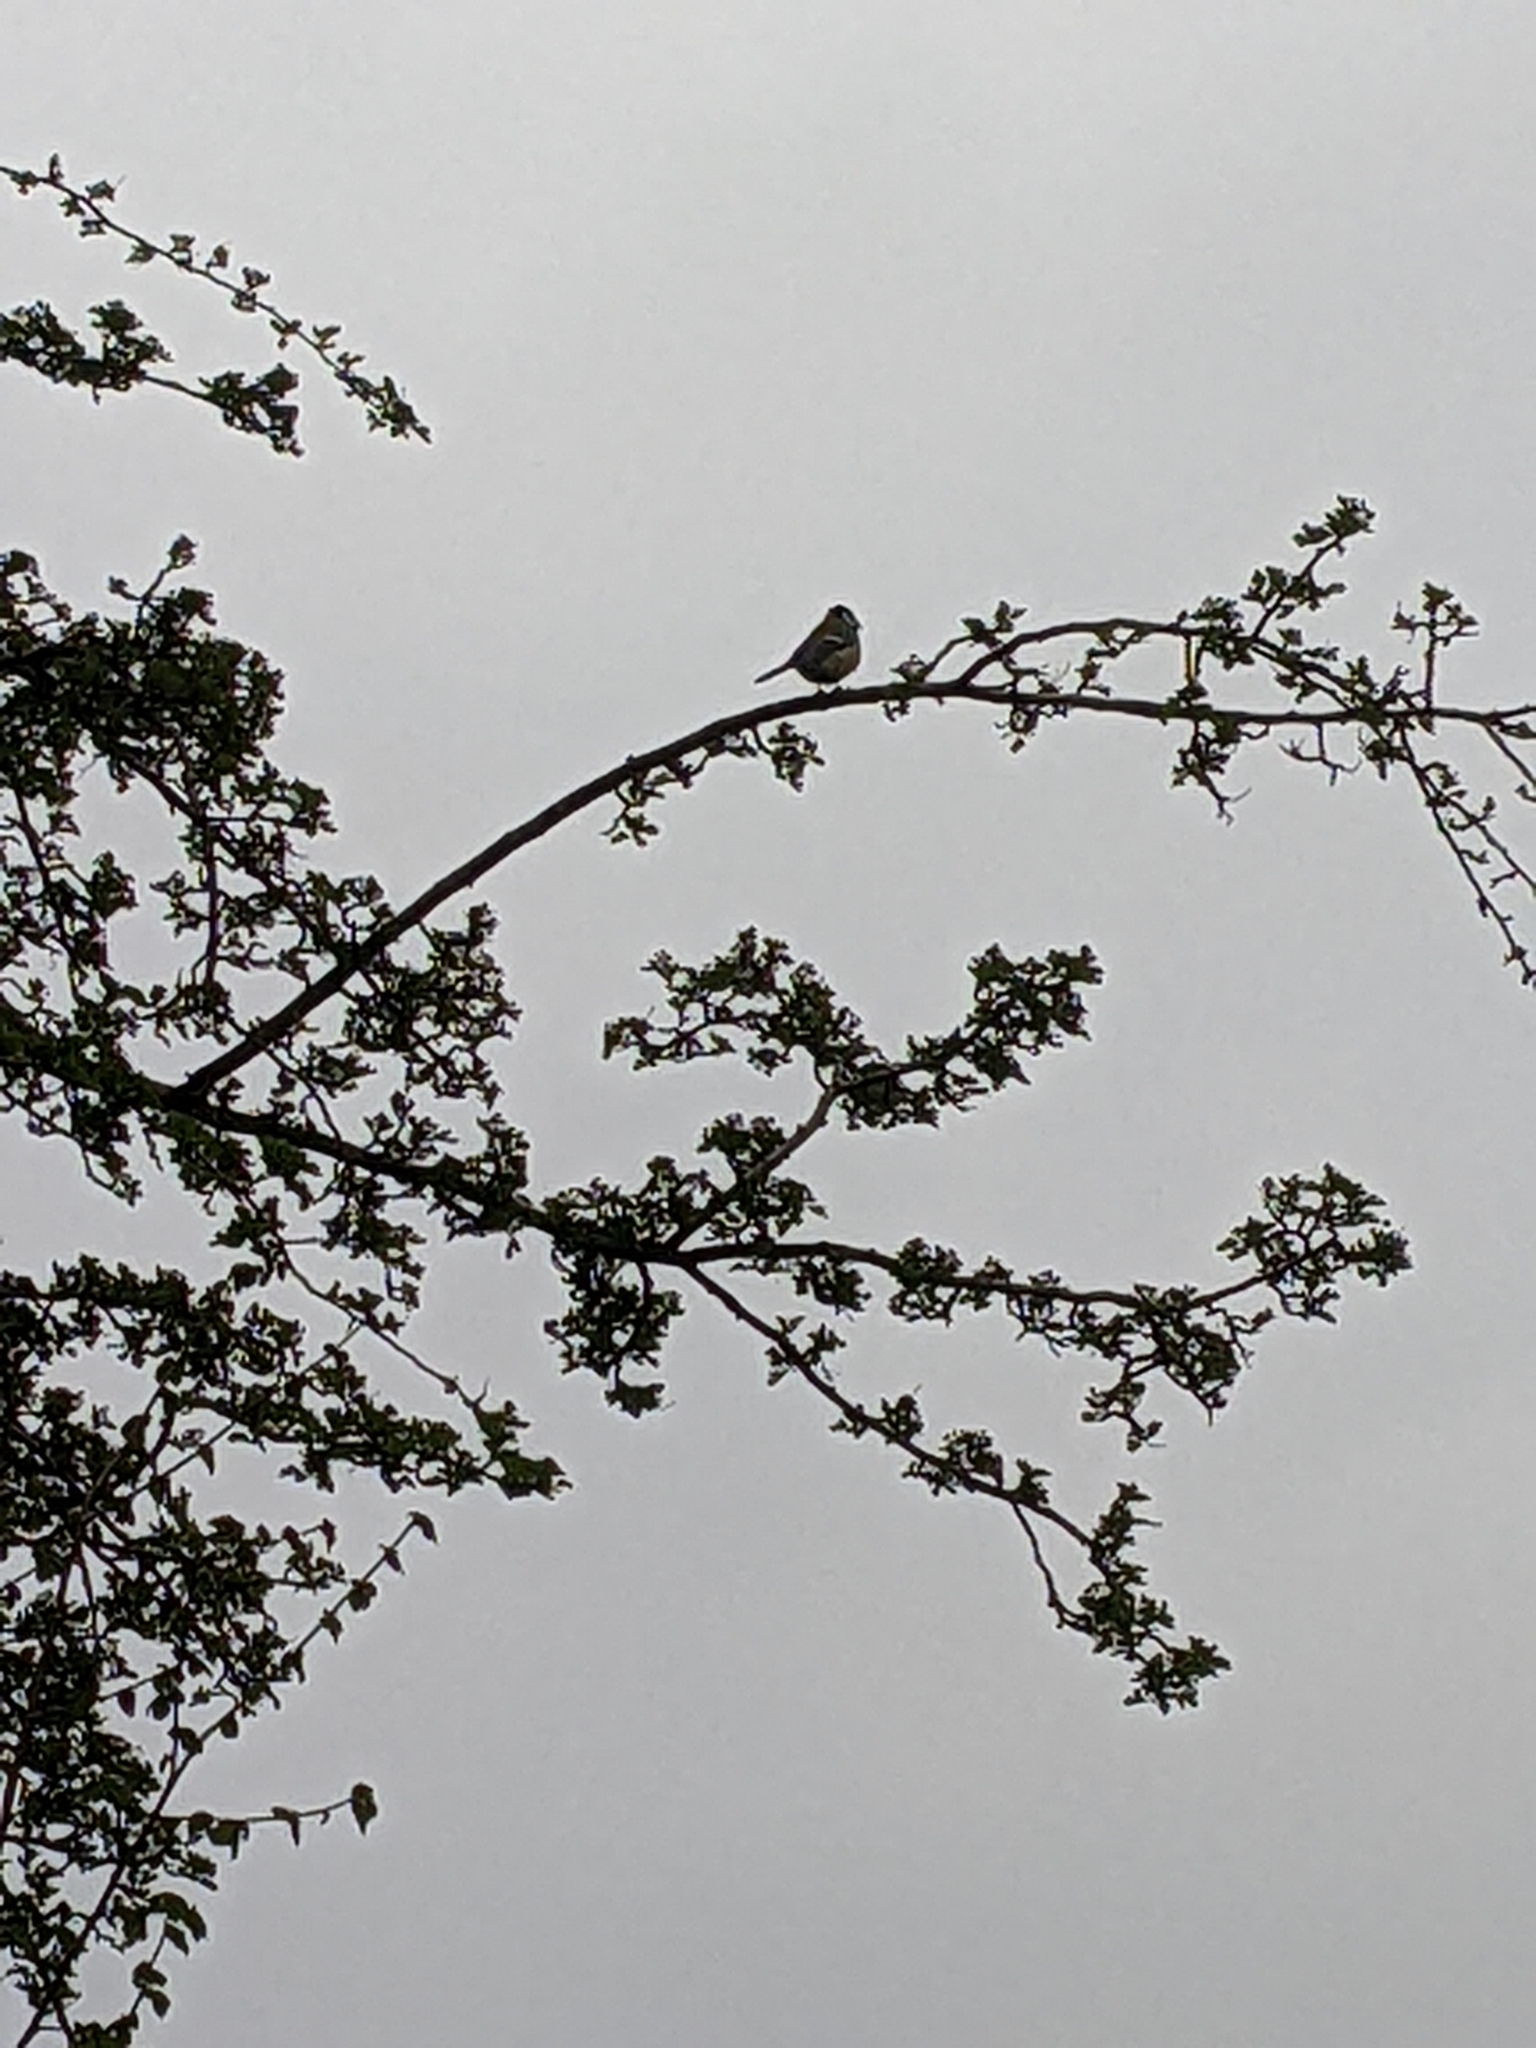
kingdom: Animalia
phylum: Chordata
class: Aves
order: Passeriformes
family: Paridae
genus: Cyanistes
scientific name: Cyanistes caeruleus
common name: Eurasian blue tit
